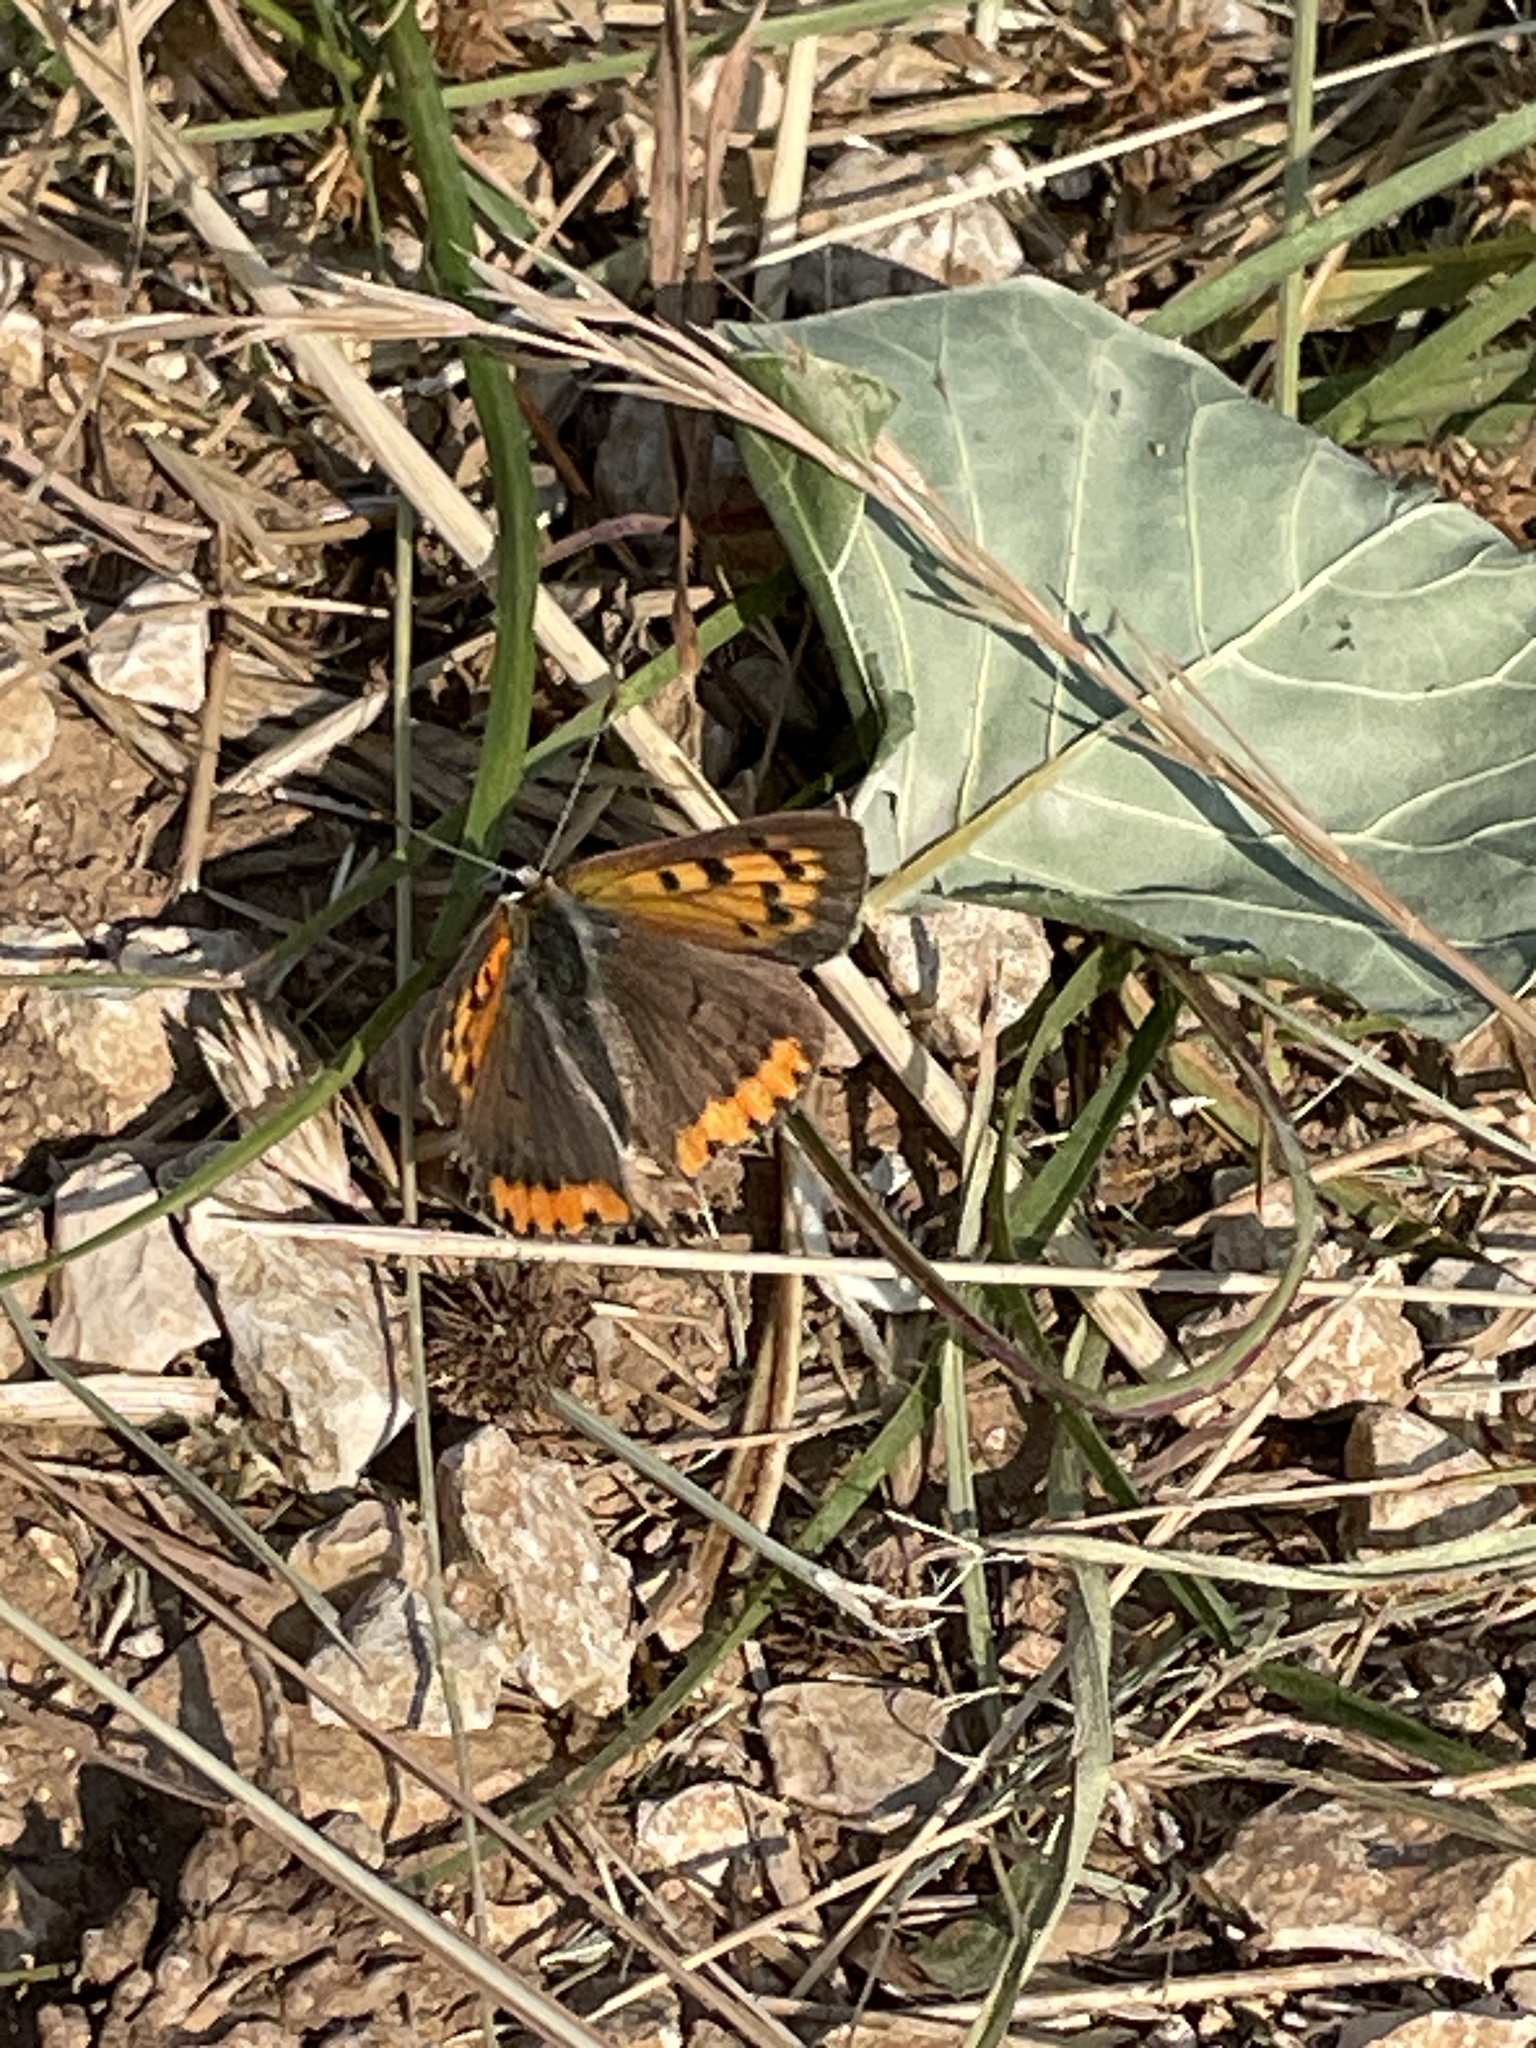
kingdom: Animalia
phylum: Arthropoda
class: Insecta
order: Lepidoptera
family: Lycaenidae
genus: Lycaena
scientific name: Lycaena phlaeas
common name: Small copper
